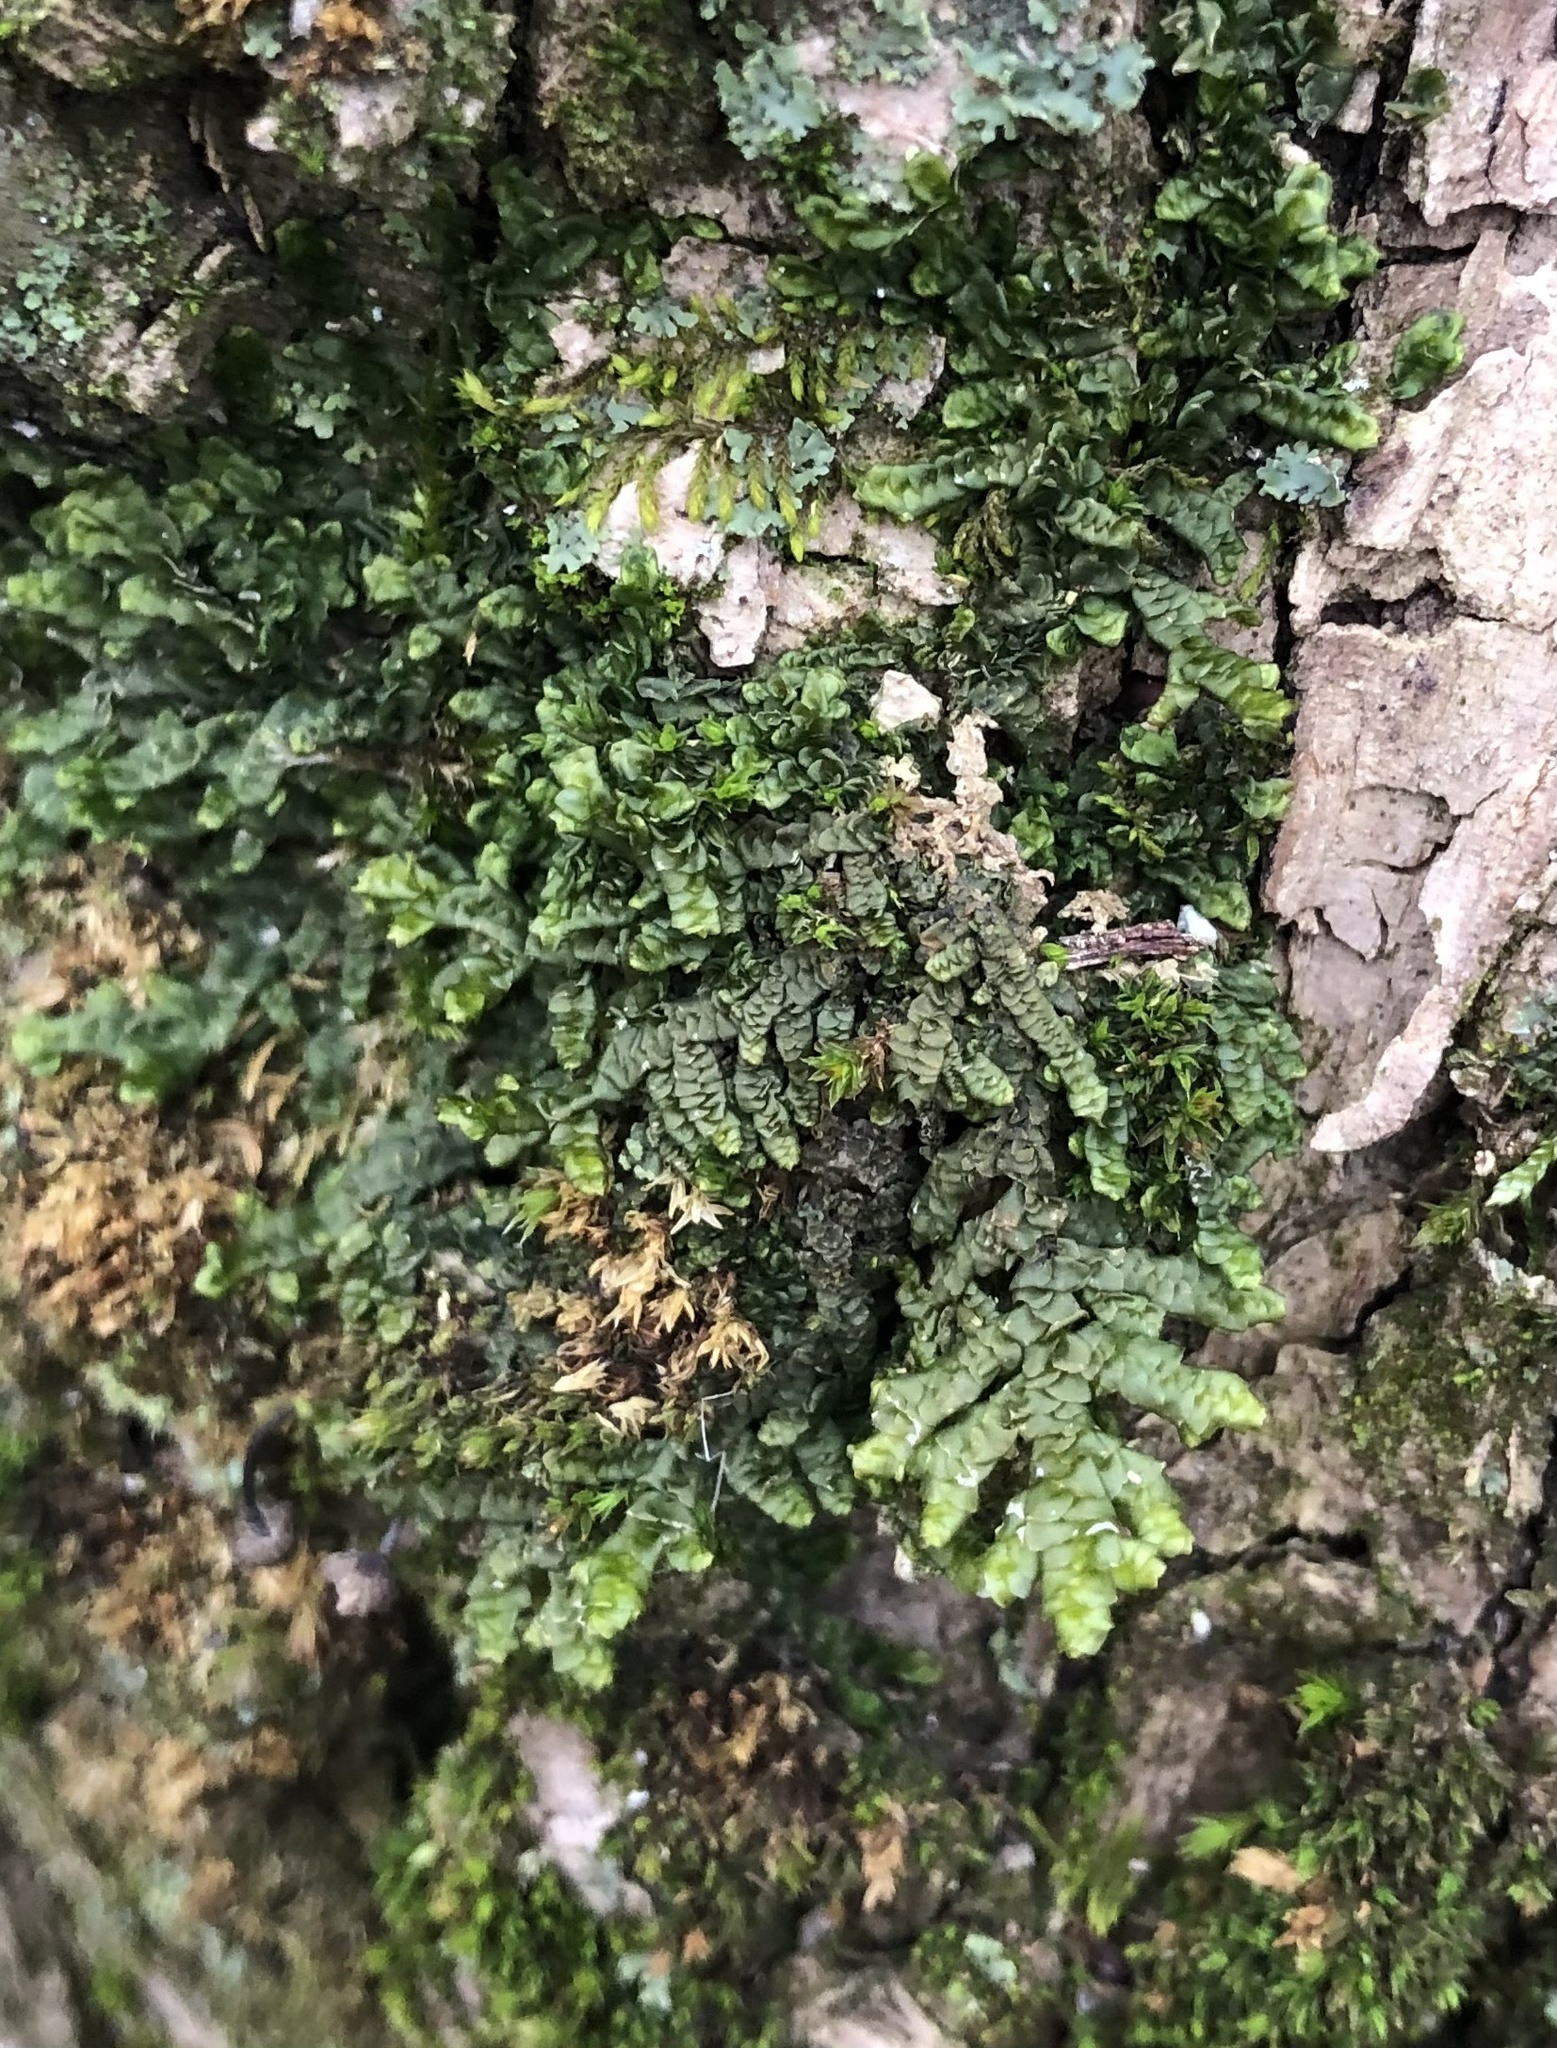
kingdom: Plantae
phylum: Marchantiophyta
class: Jungermanniopsida
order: Porellales
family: Porellaceae
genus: Porella
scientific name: Porella platyphylla
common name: Wall scalewort
